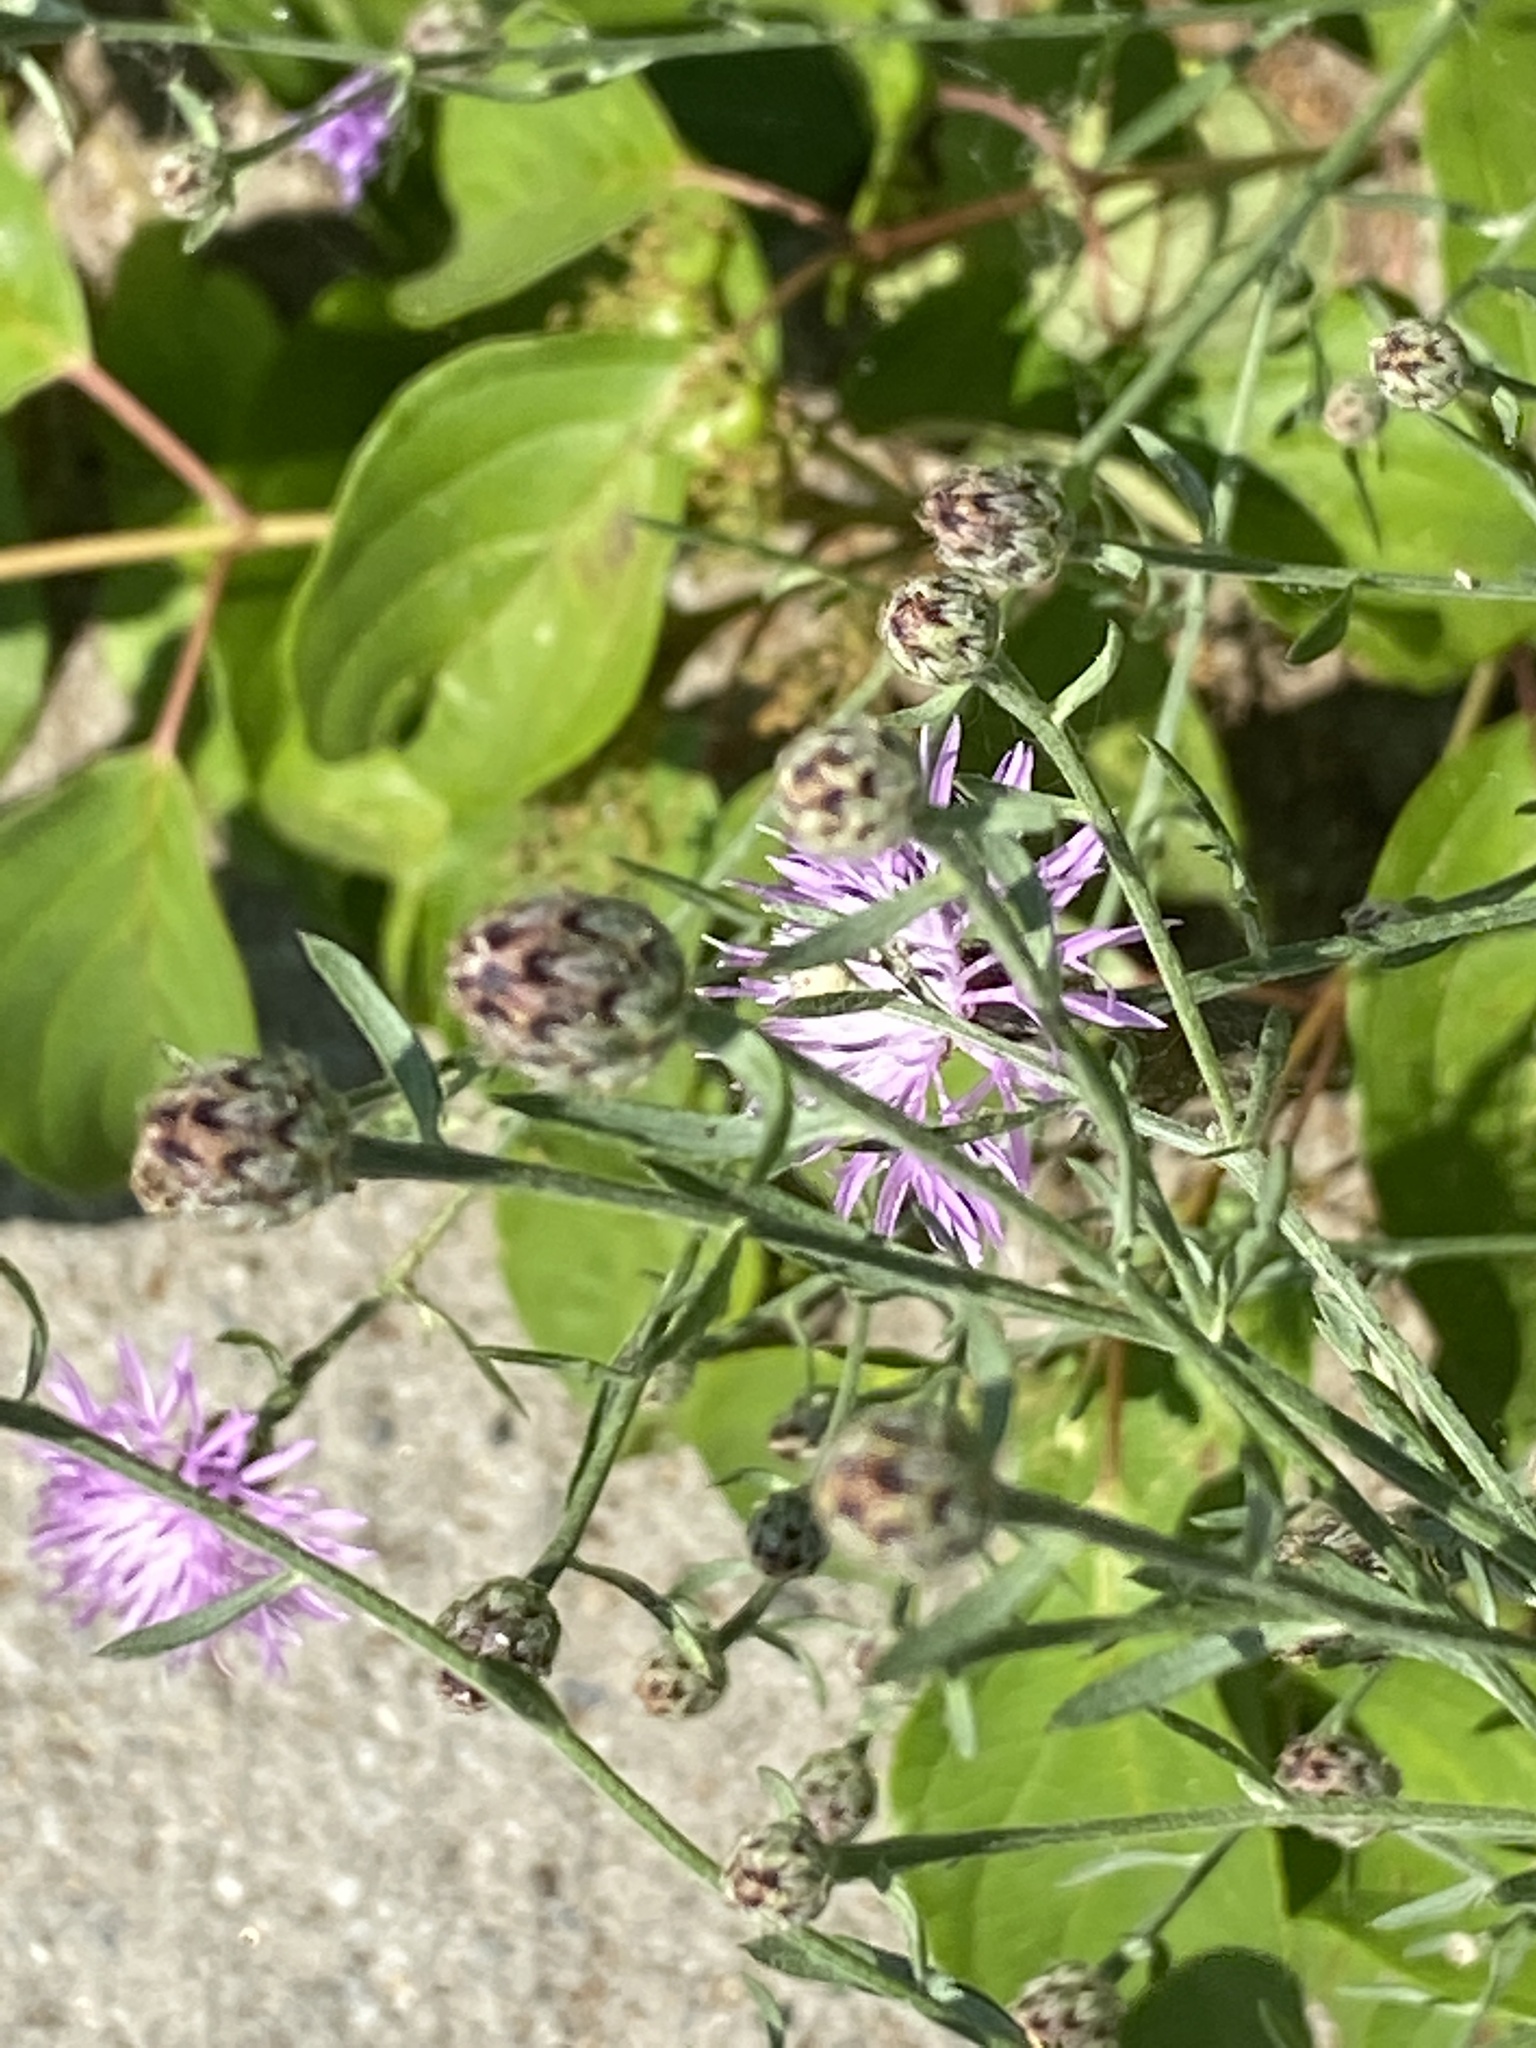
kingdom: Plantae
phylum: Tracheophyta
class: Magnoliopsida
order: Asterales
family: Asteraceae
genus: Centaurea
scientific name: Centaurea stoebe
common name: Spotted knapweed
